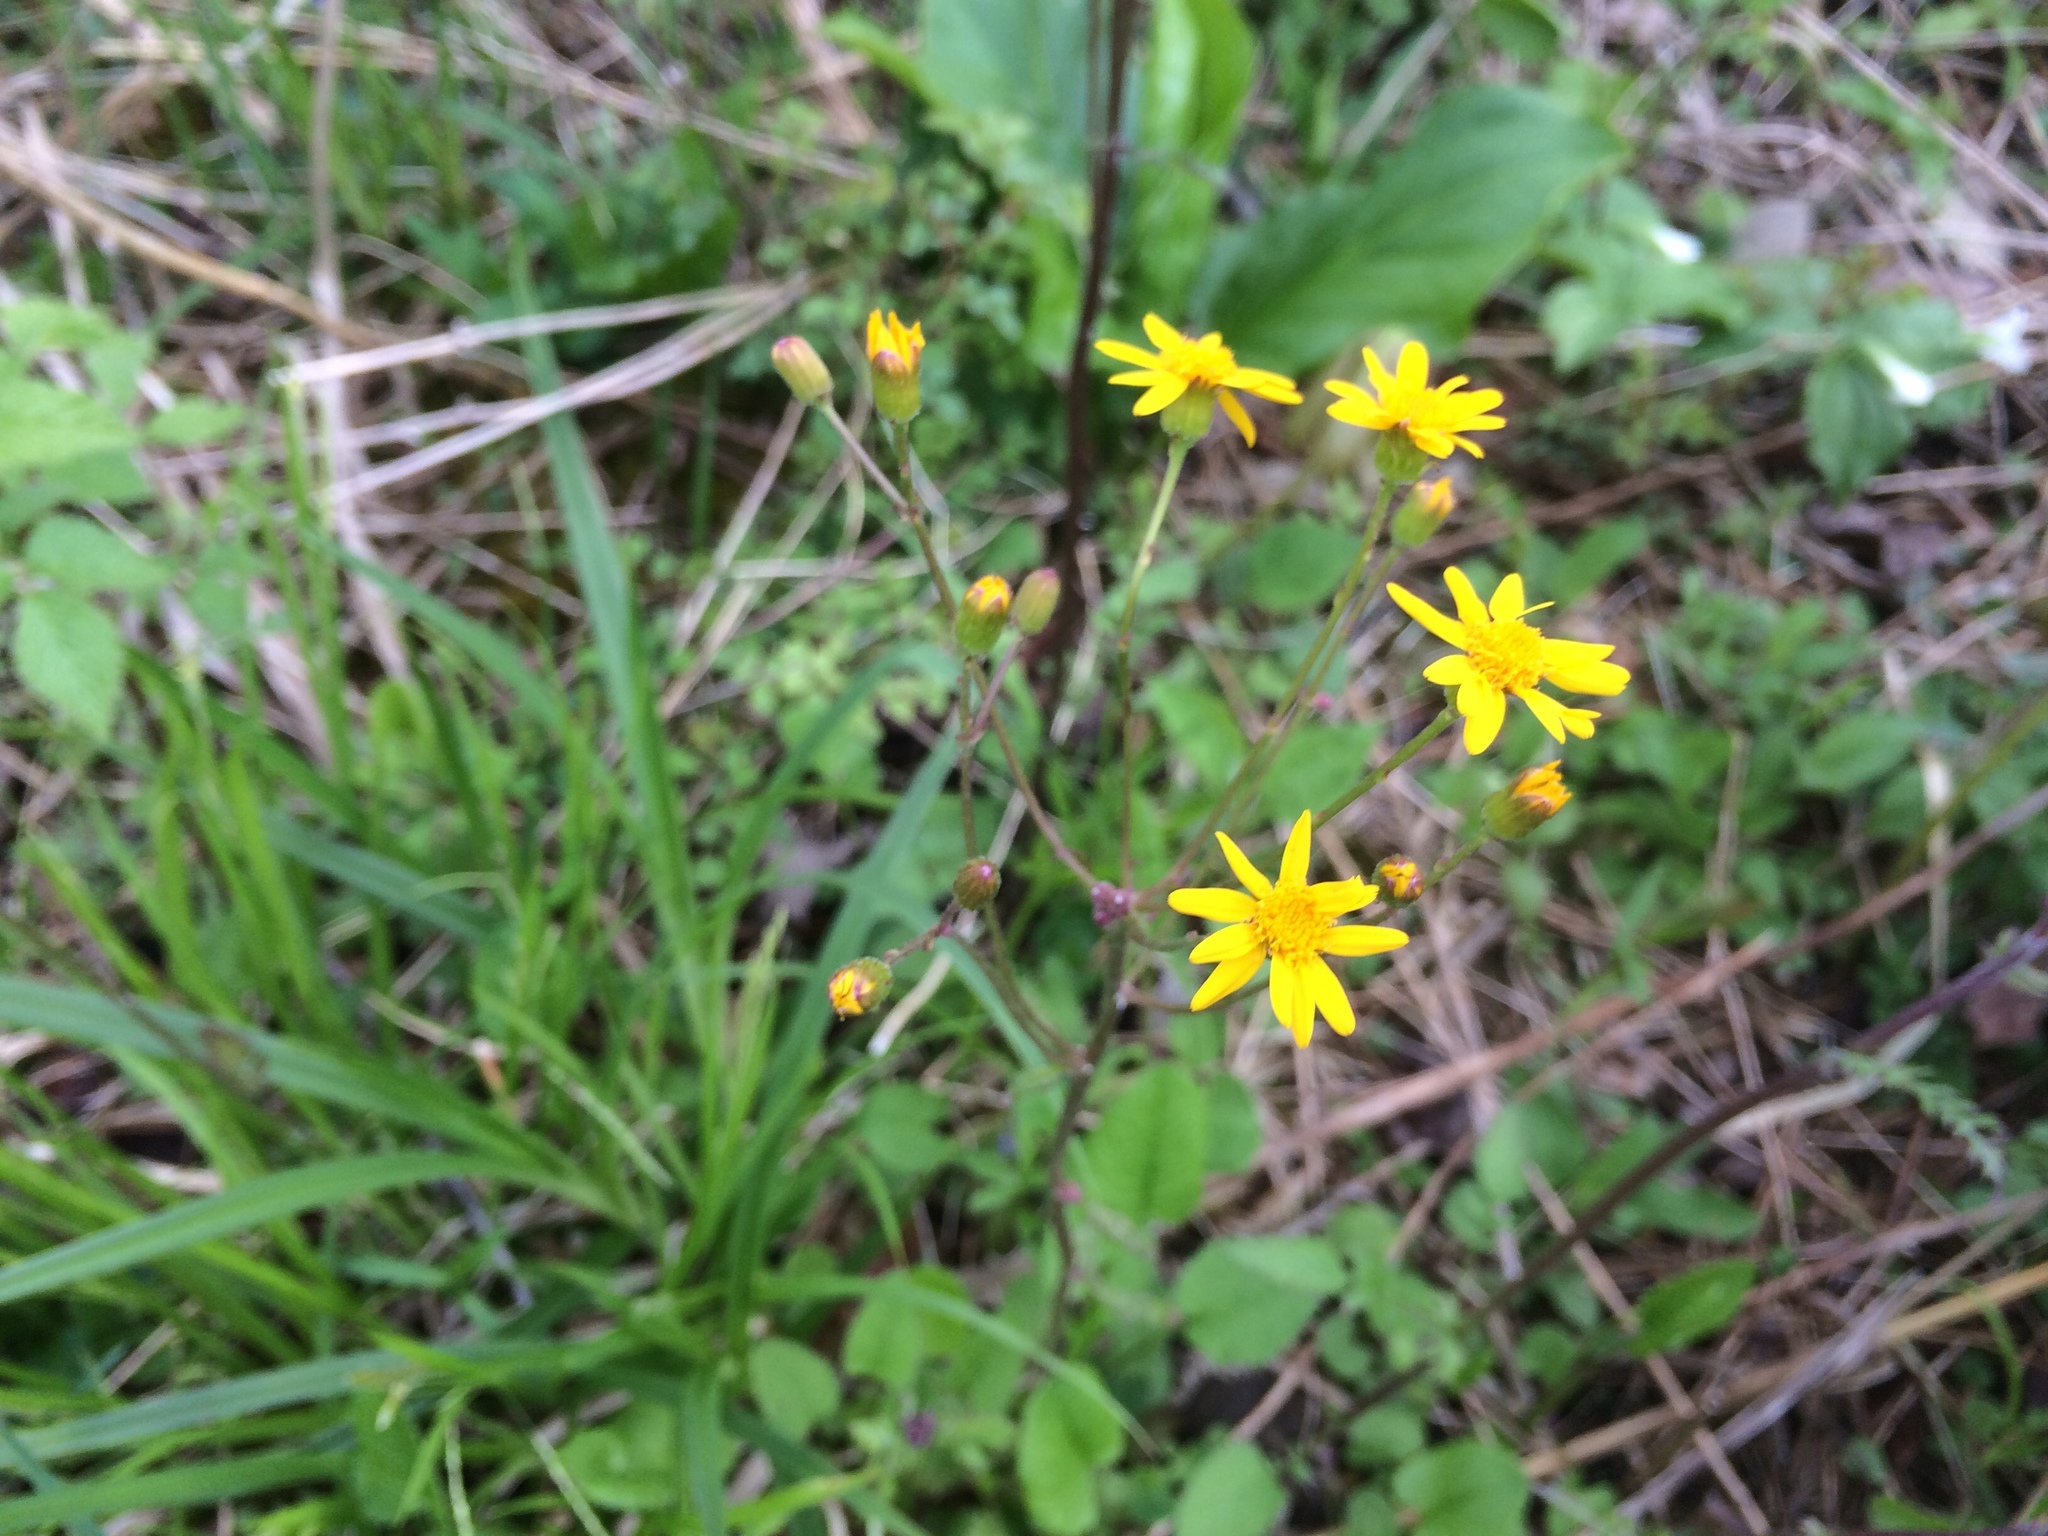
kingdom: Plantae
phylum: Tracheophyta
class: Magnoliopsida
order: Asterales
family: Asteraceae
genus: Packera
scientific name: Packera aurea
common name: Golden groundsel
